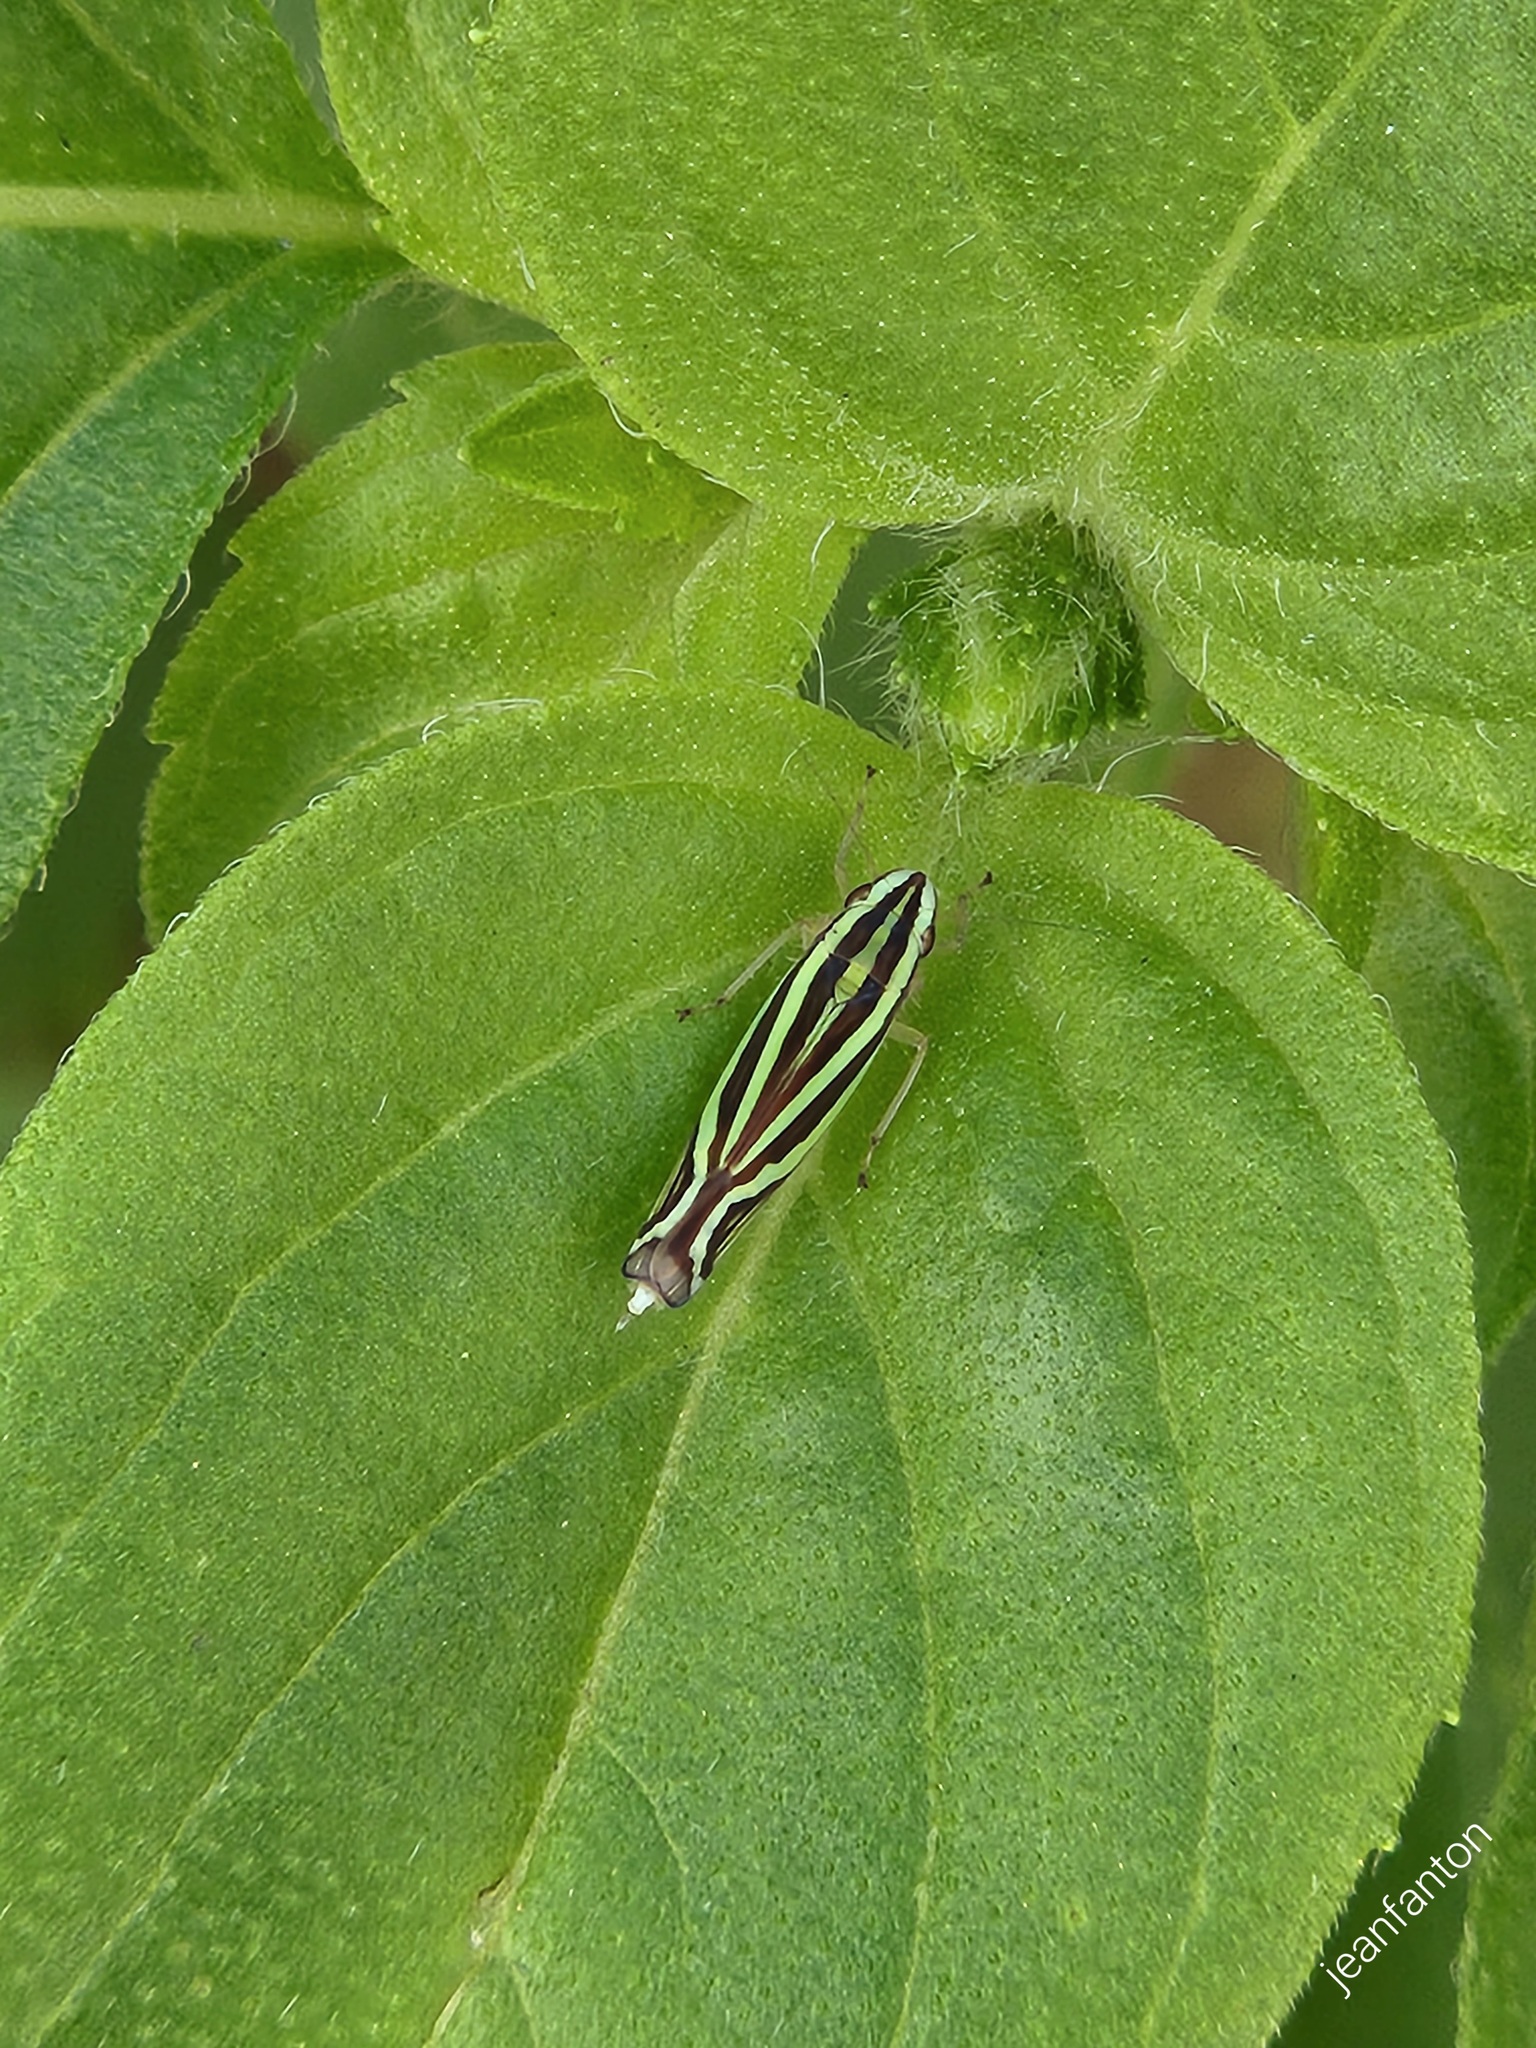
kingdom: Animalia
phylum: Arthropoda
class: Insecta
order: Hemiptera
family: Cicadellidae
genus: Sibovia
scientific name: Sibovia sagata
